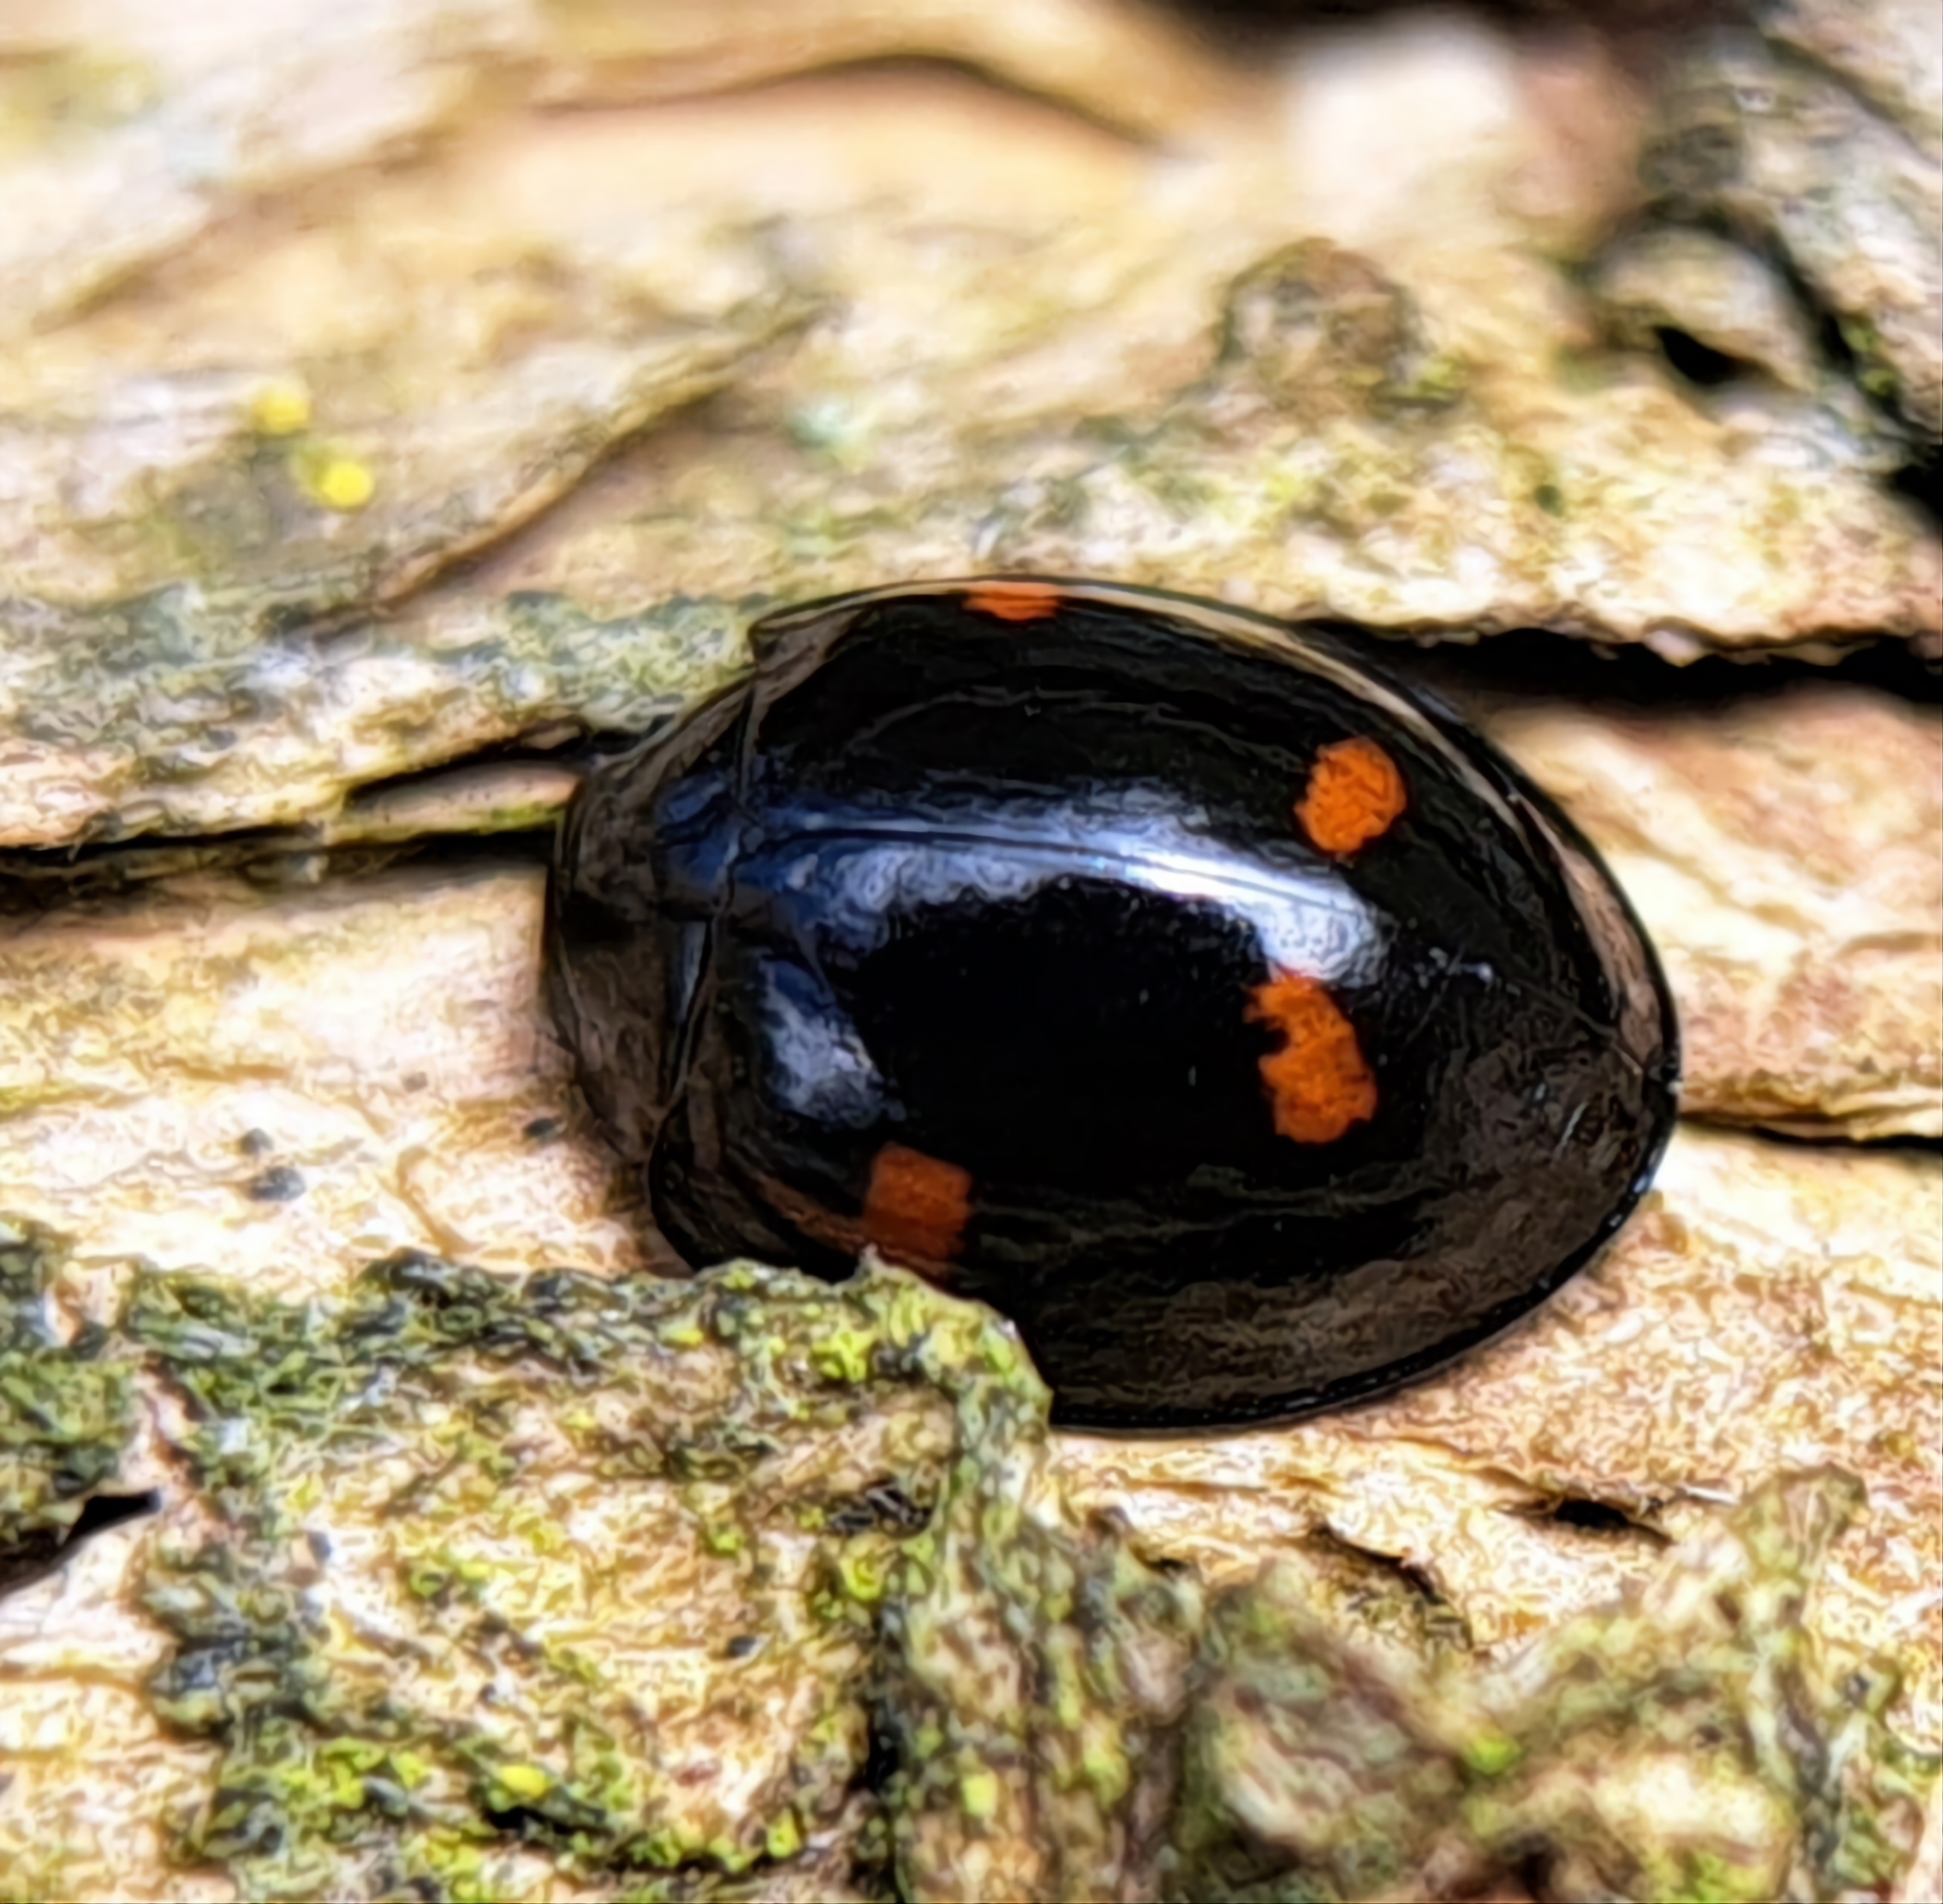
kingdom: Animalia
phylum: Arthropoda
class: Insecta
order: Coleoptera
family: Coccinellidae
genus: Brumus
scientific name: Brumus quadripustulatus
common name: Ladybird beetle
